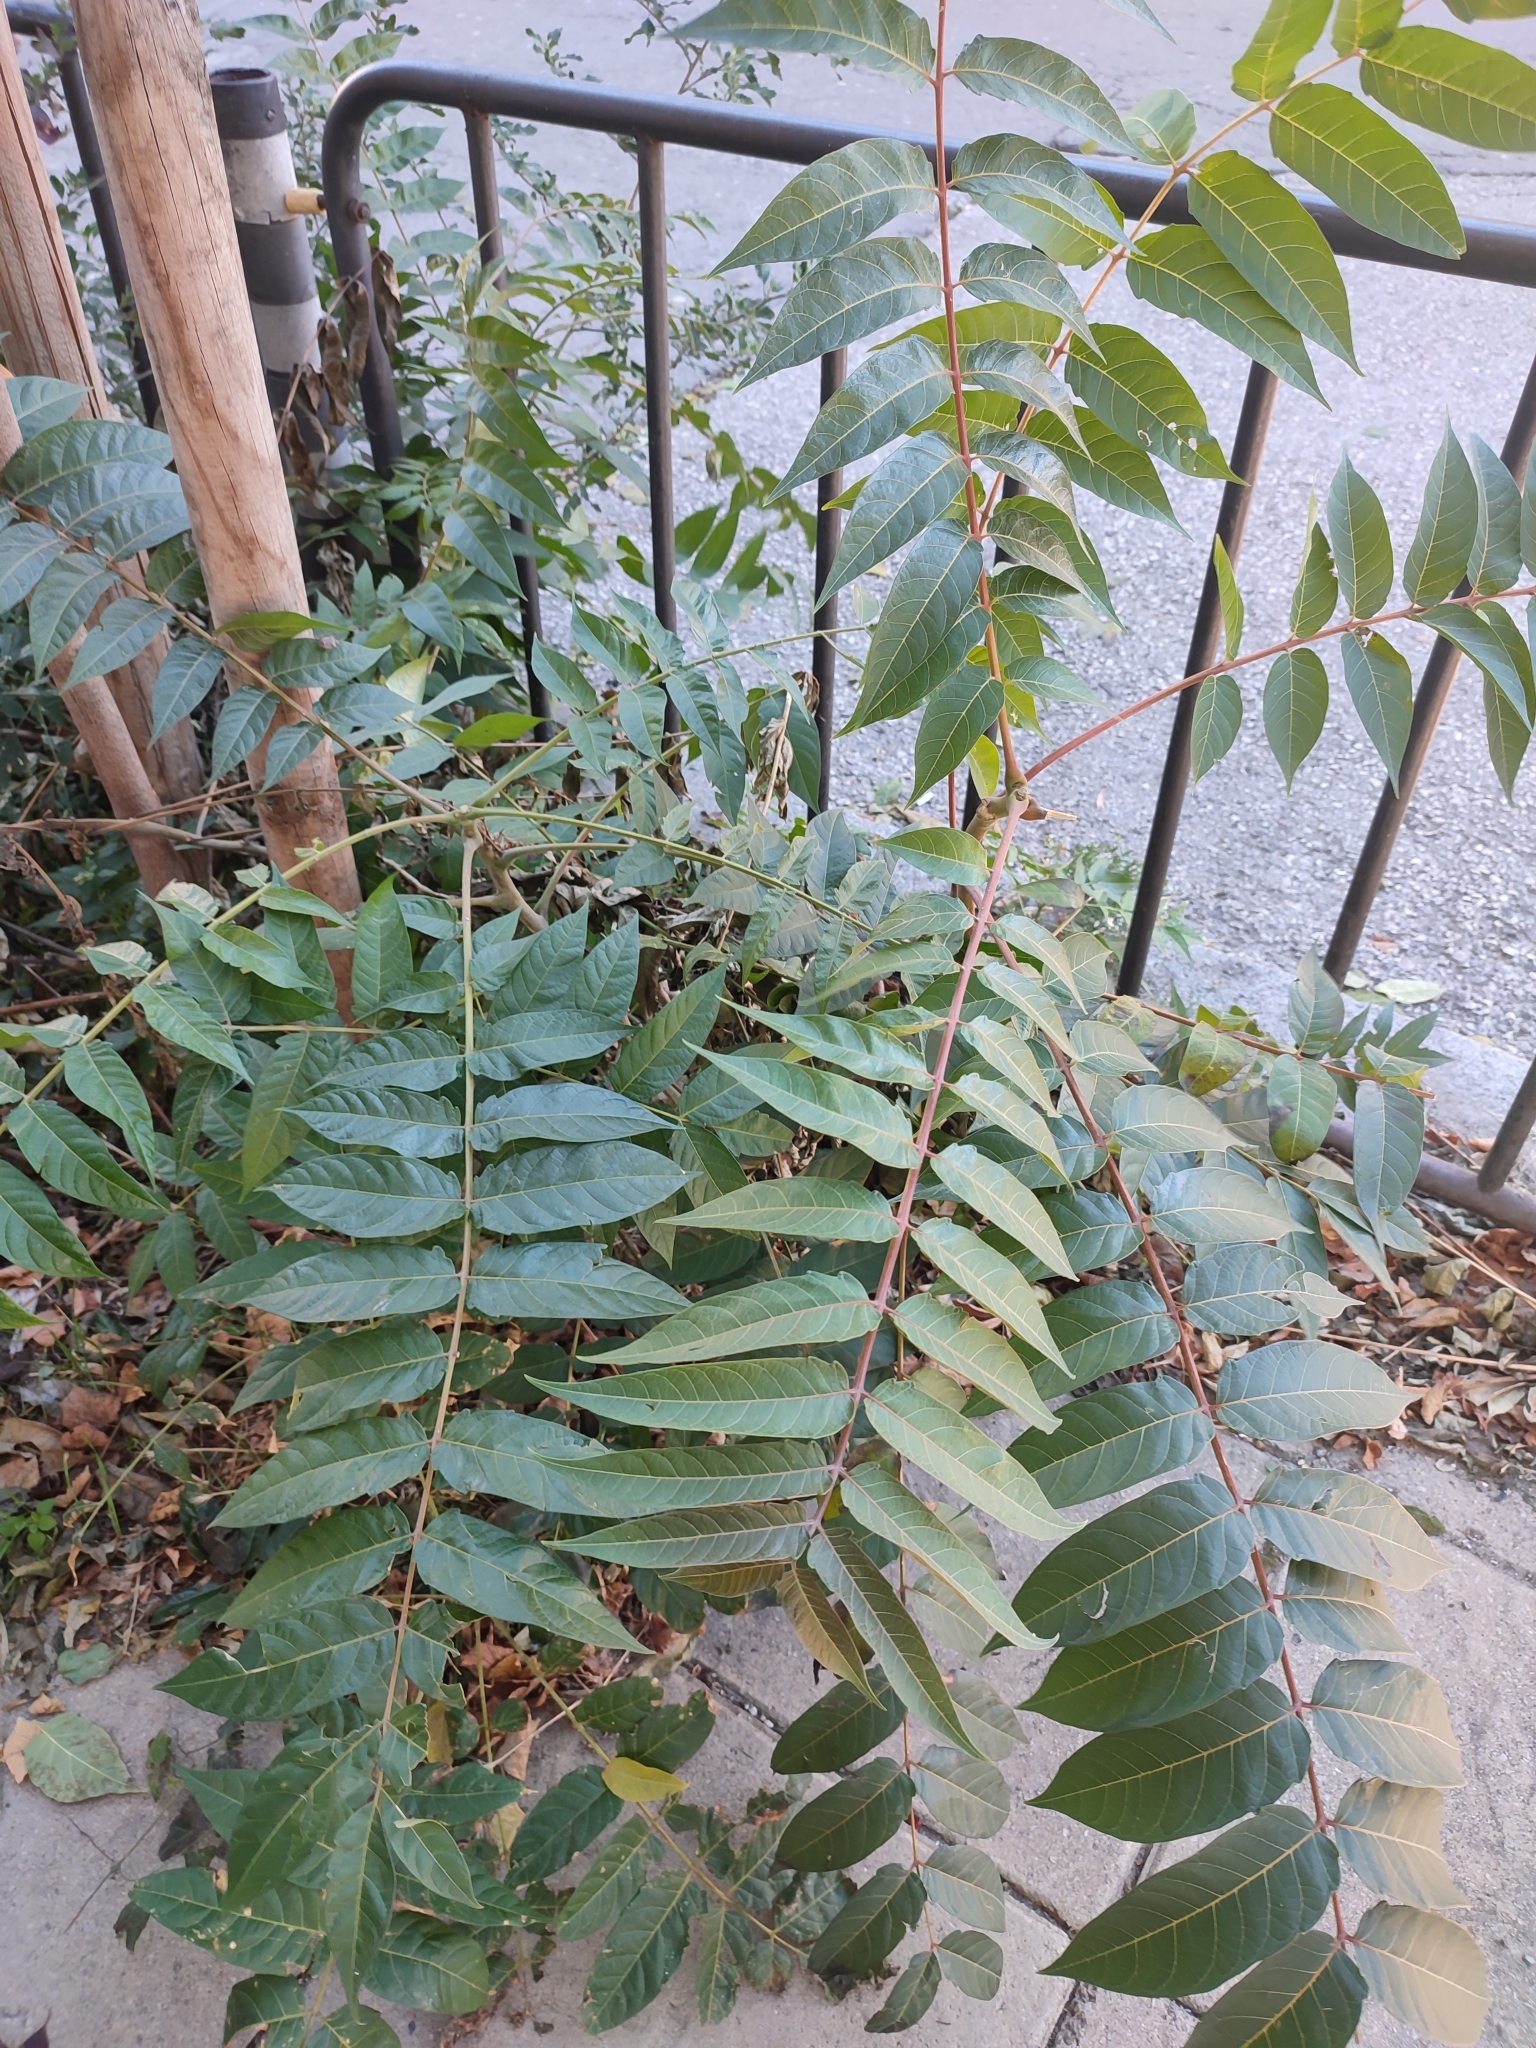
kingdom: Plantae
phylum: Tracheophyta
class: Magnoliopsida
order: Sapindales
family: Simaroubaceae
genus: Ailanthus
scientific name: Ailanthus altissima
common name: Tree-of-heaven
